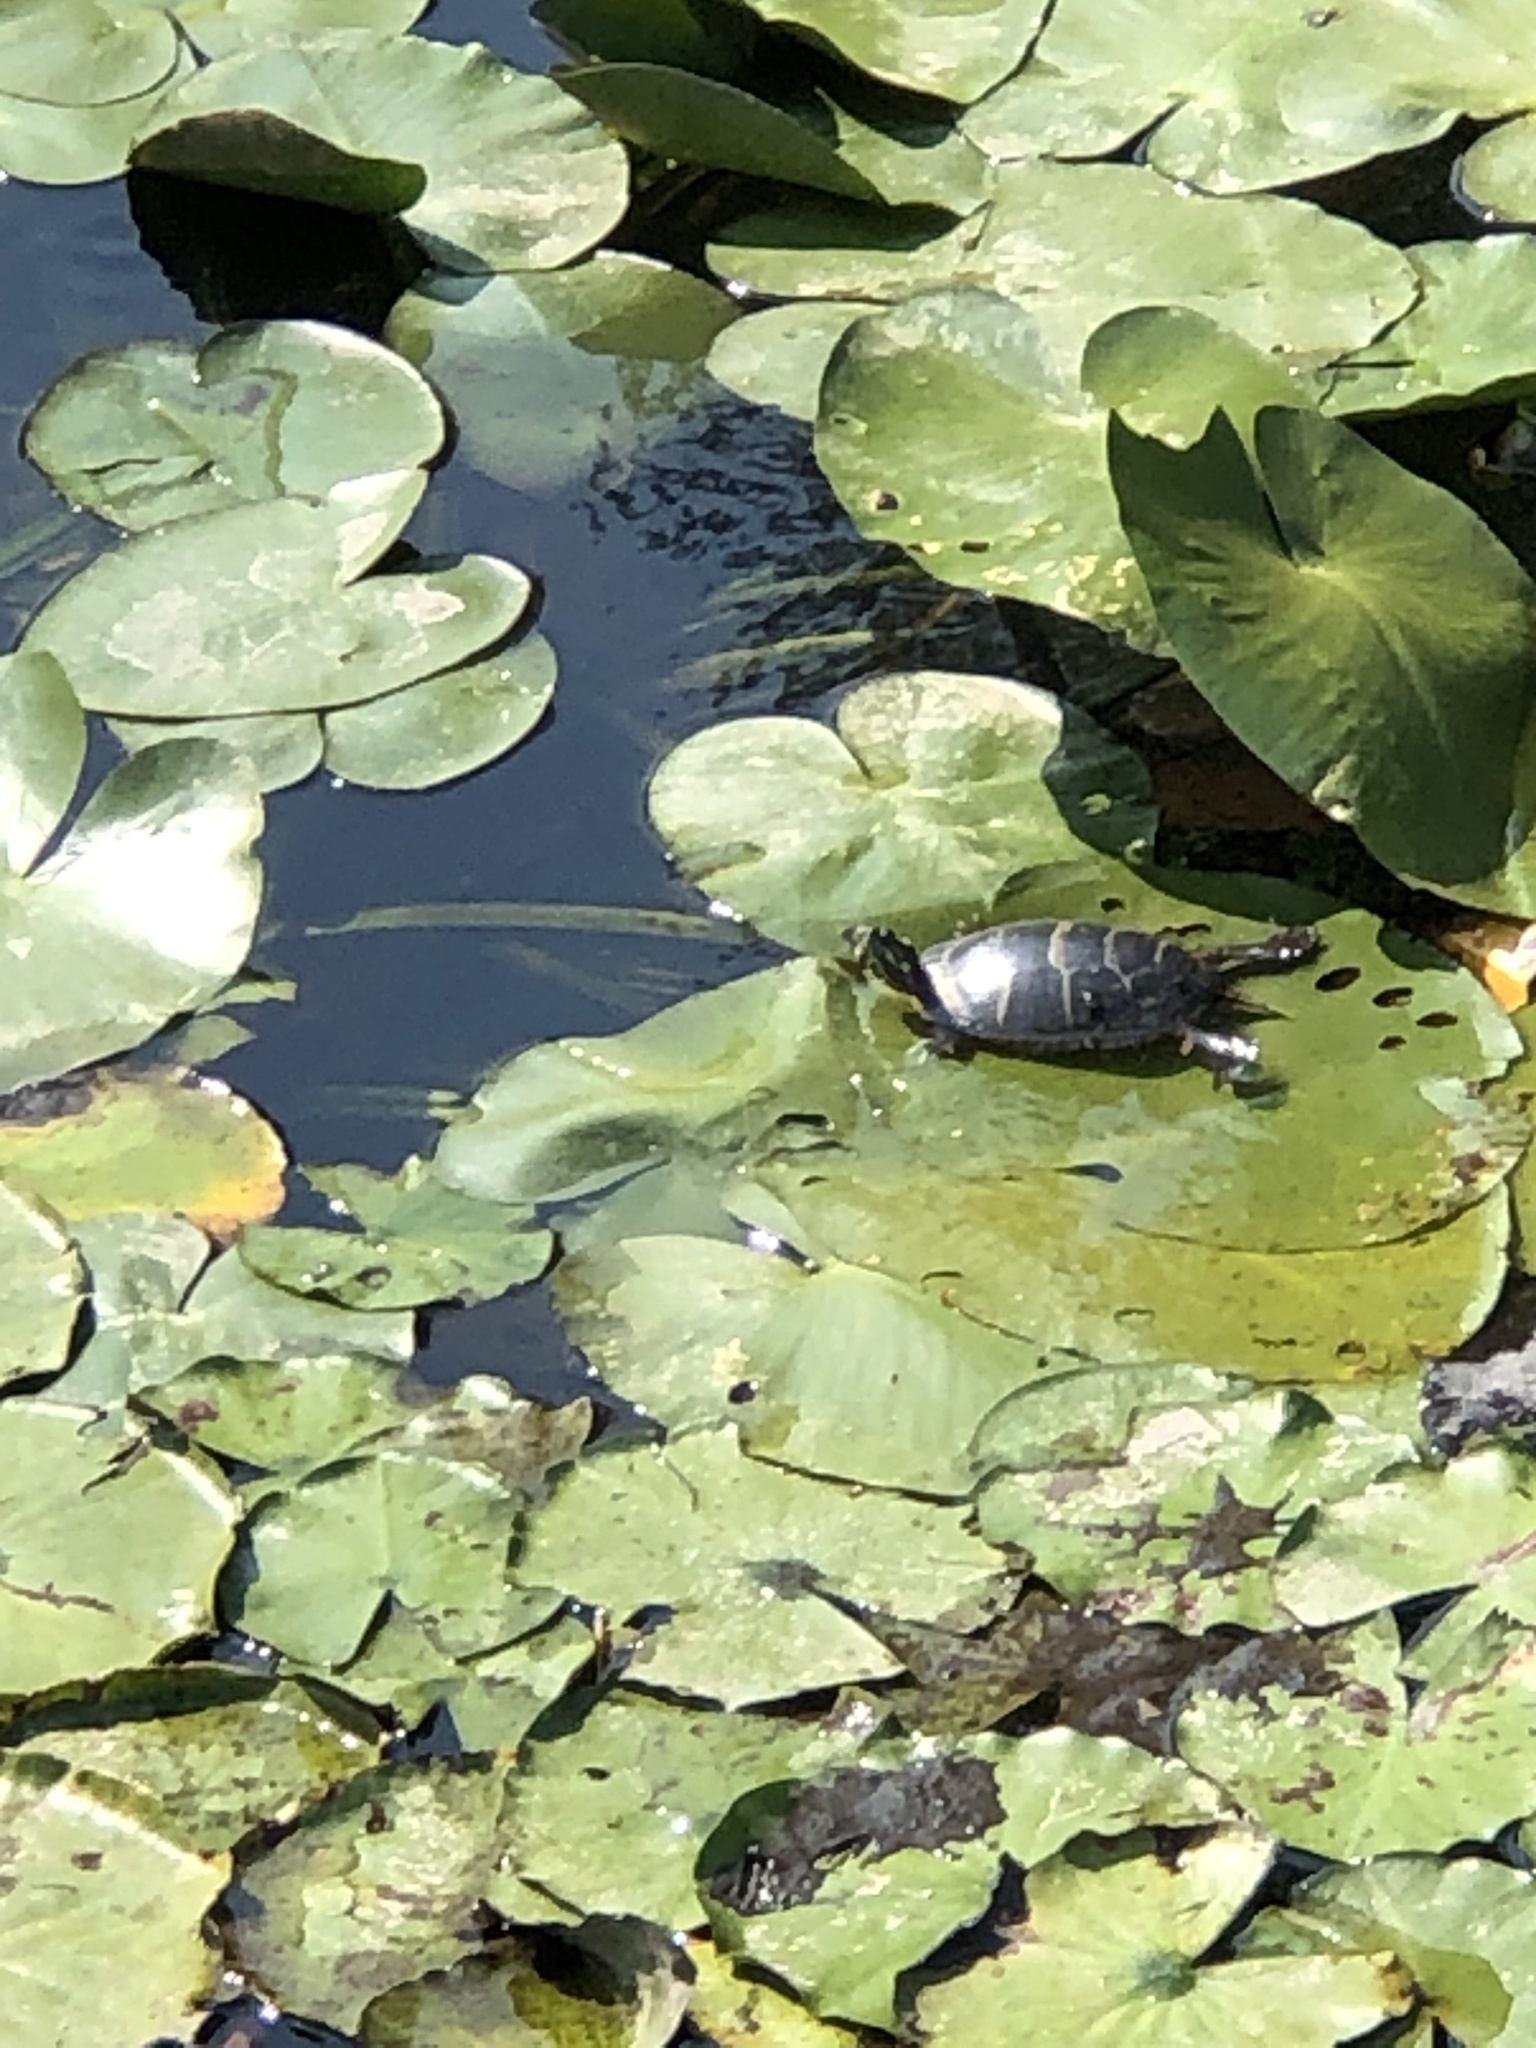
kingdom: Animalia
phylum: Chordata
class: Testudines
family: Emydidae
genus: Chrysemys
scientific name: Chrysemys picta
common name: Painted turtle
